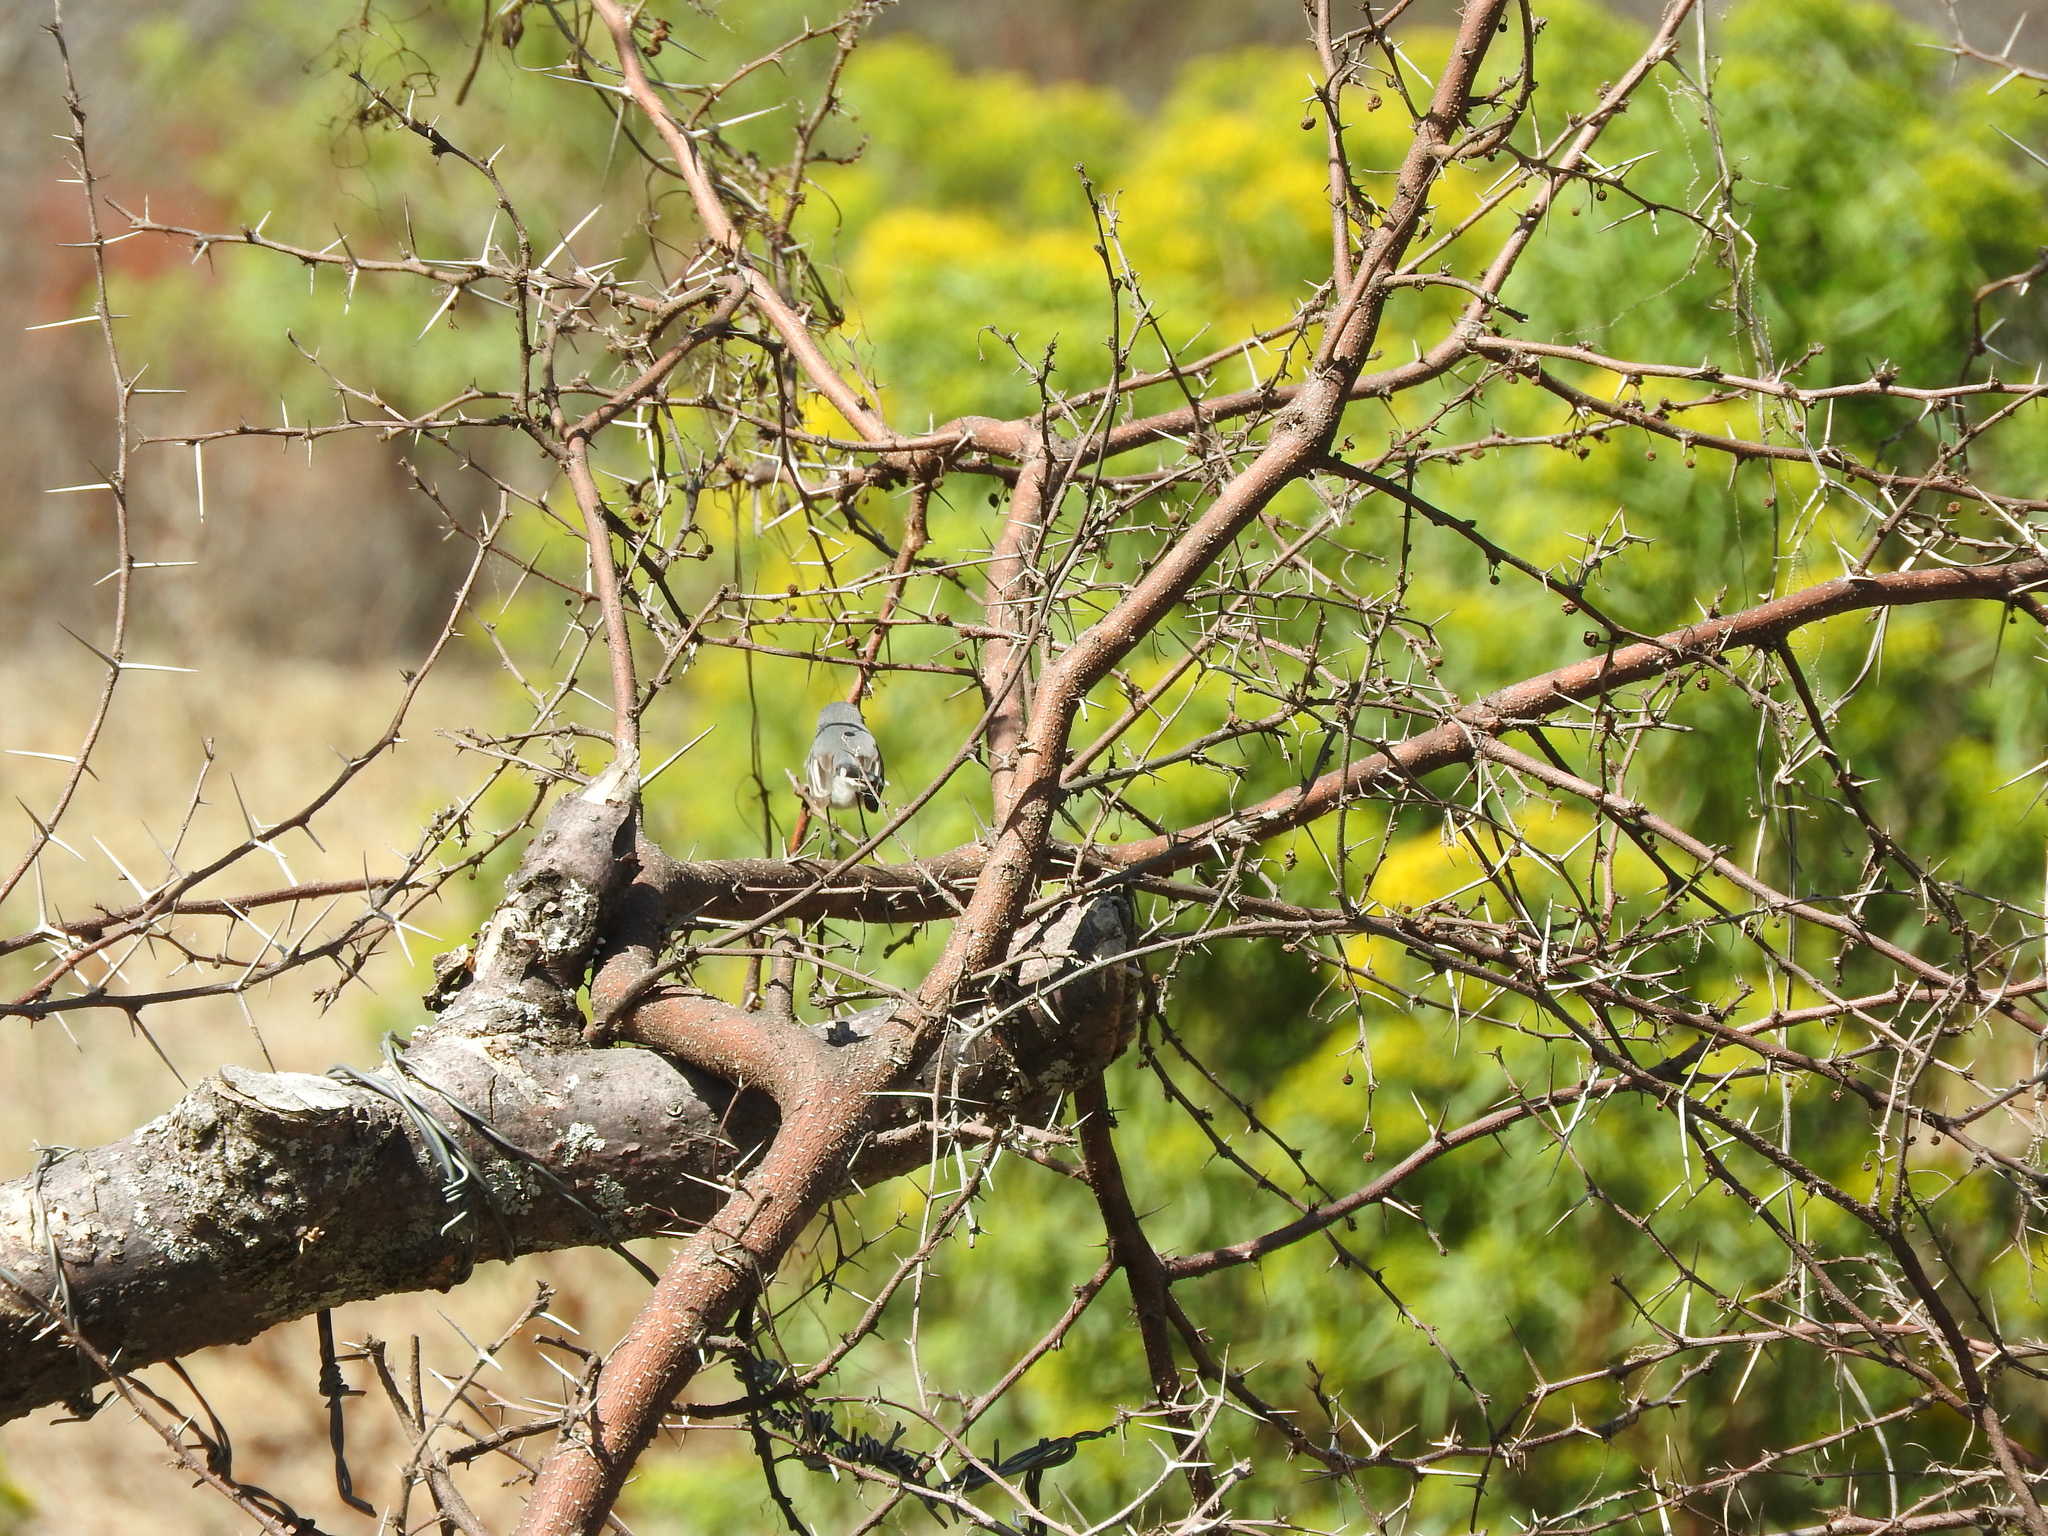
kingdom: Animalia
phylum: Chordata
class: Aves
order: Passeriformes
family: Polioptilidae
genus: Polioptila
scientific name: Polioptila caerulea
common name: Blue-gray gnatcatcher
